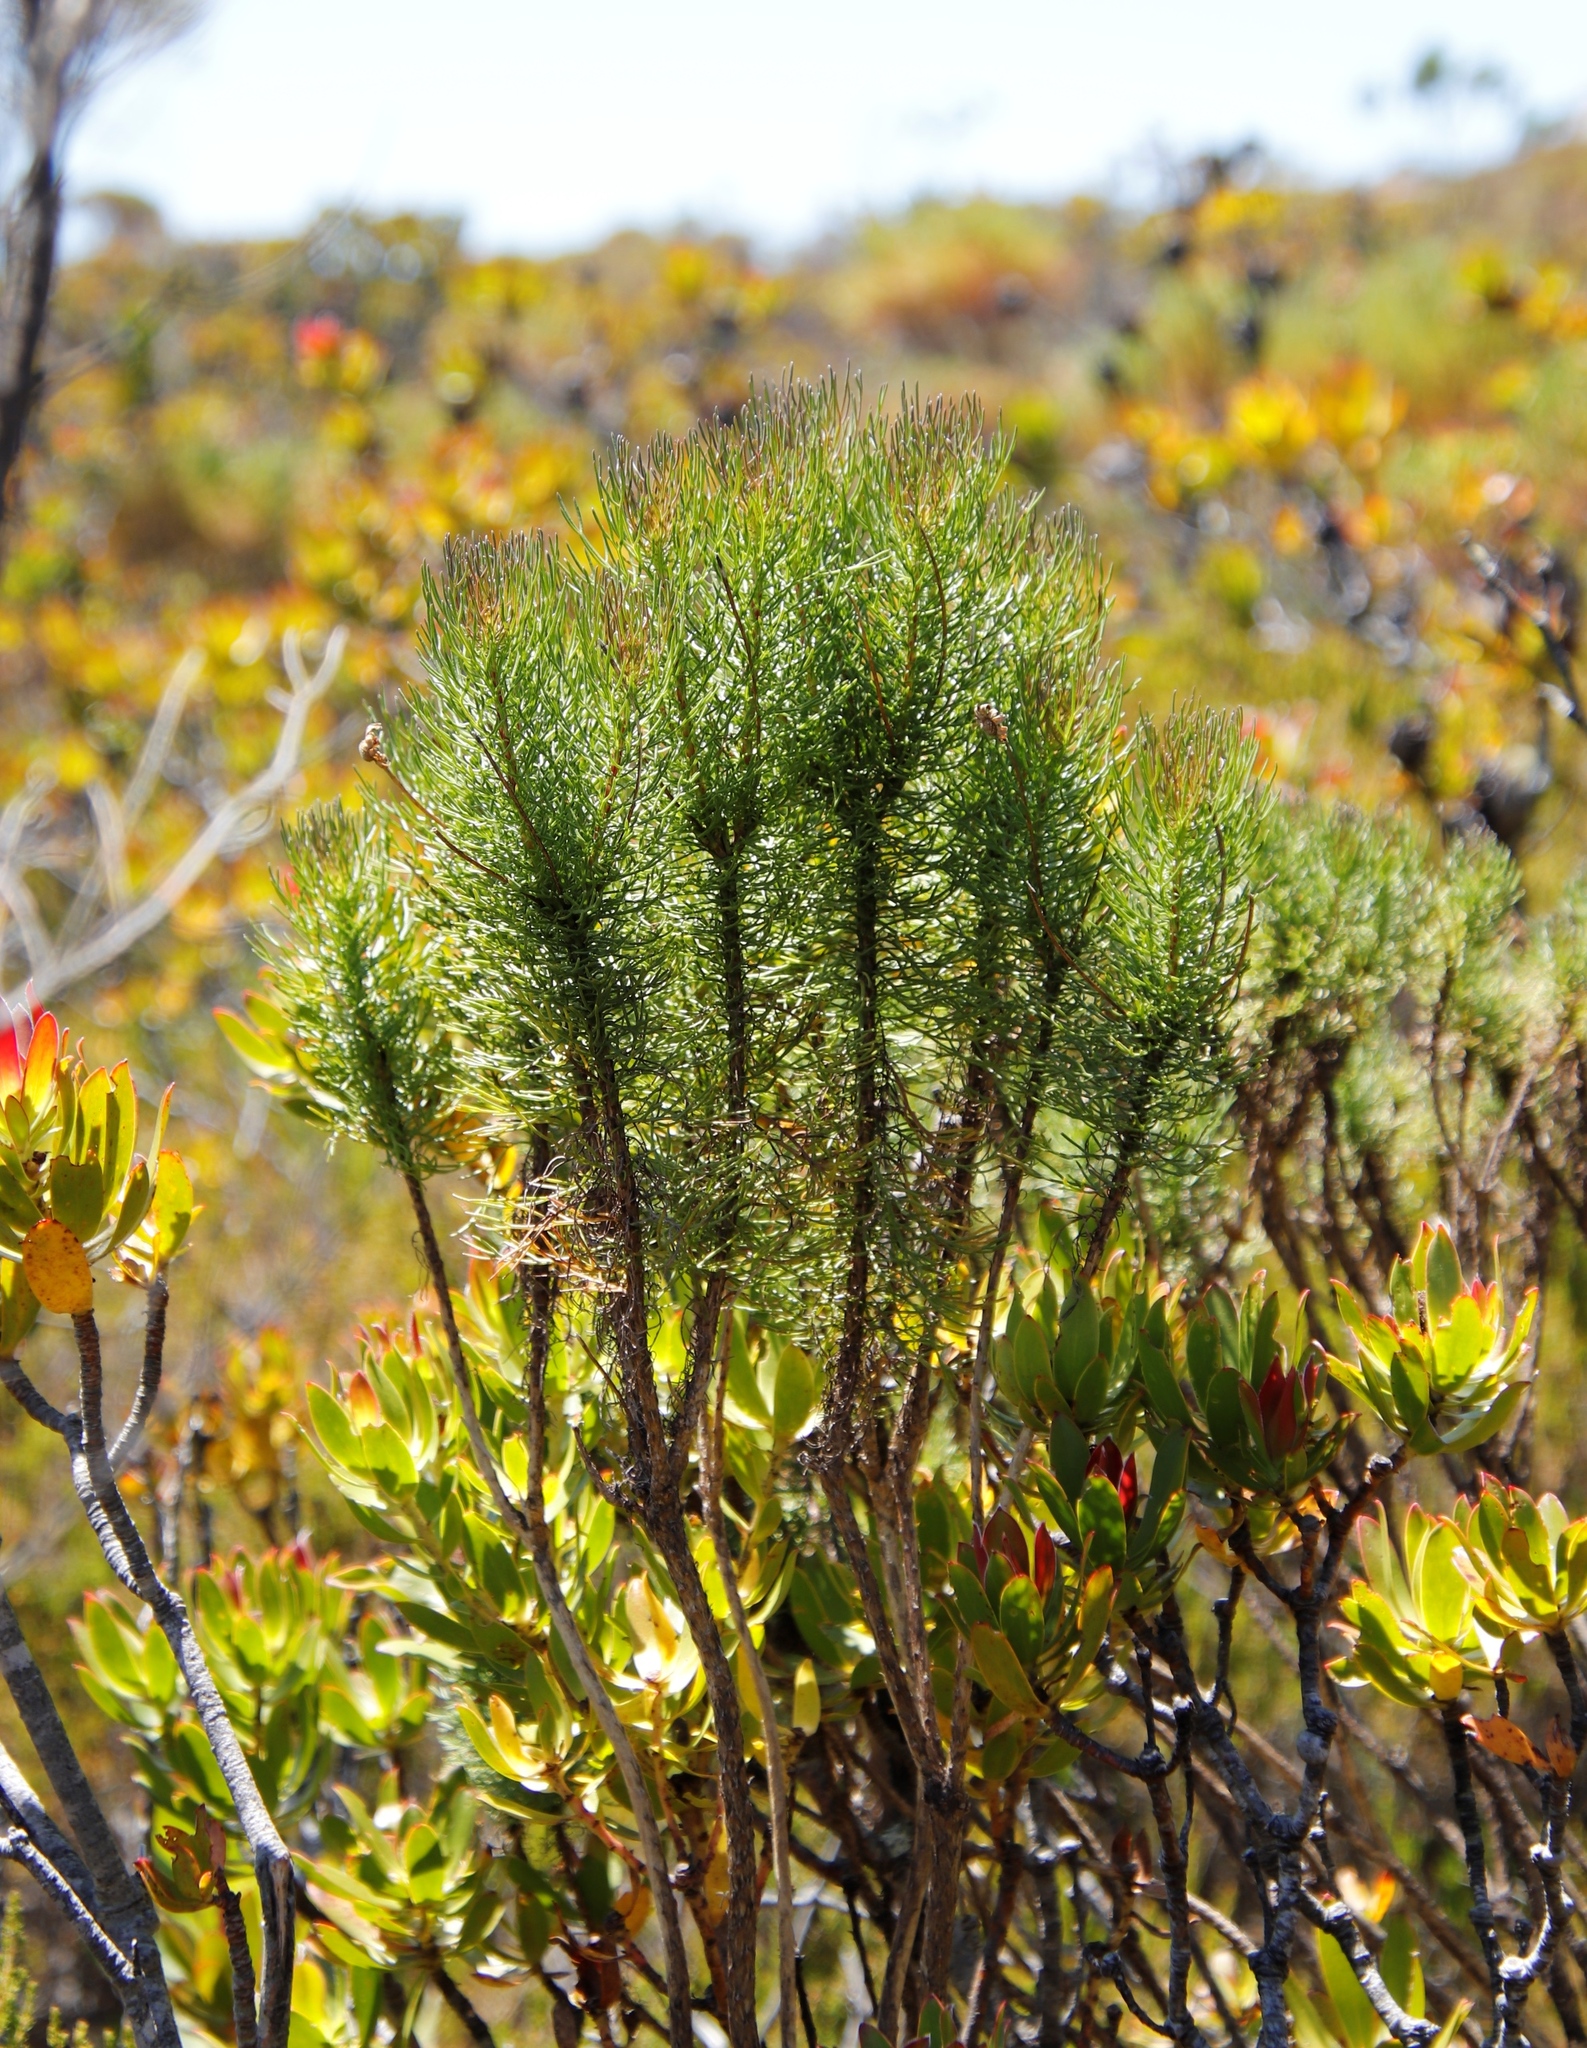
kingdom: Plantae
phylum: Tracheophyta
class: Magnoliopsida
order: Asterales
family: Asteraceae
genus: Euryops
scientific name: Euryops abrotanifolius
